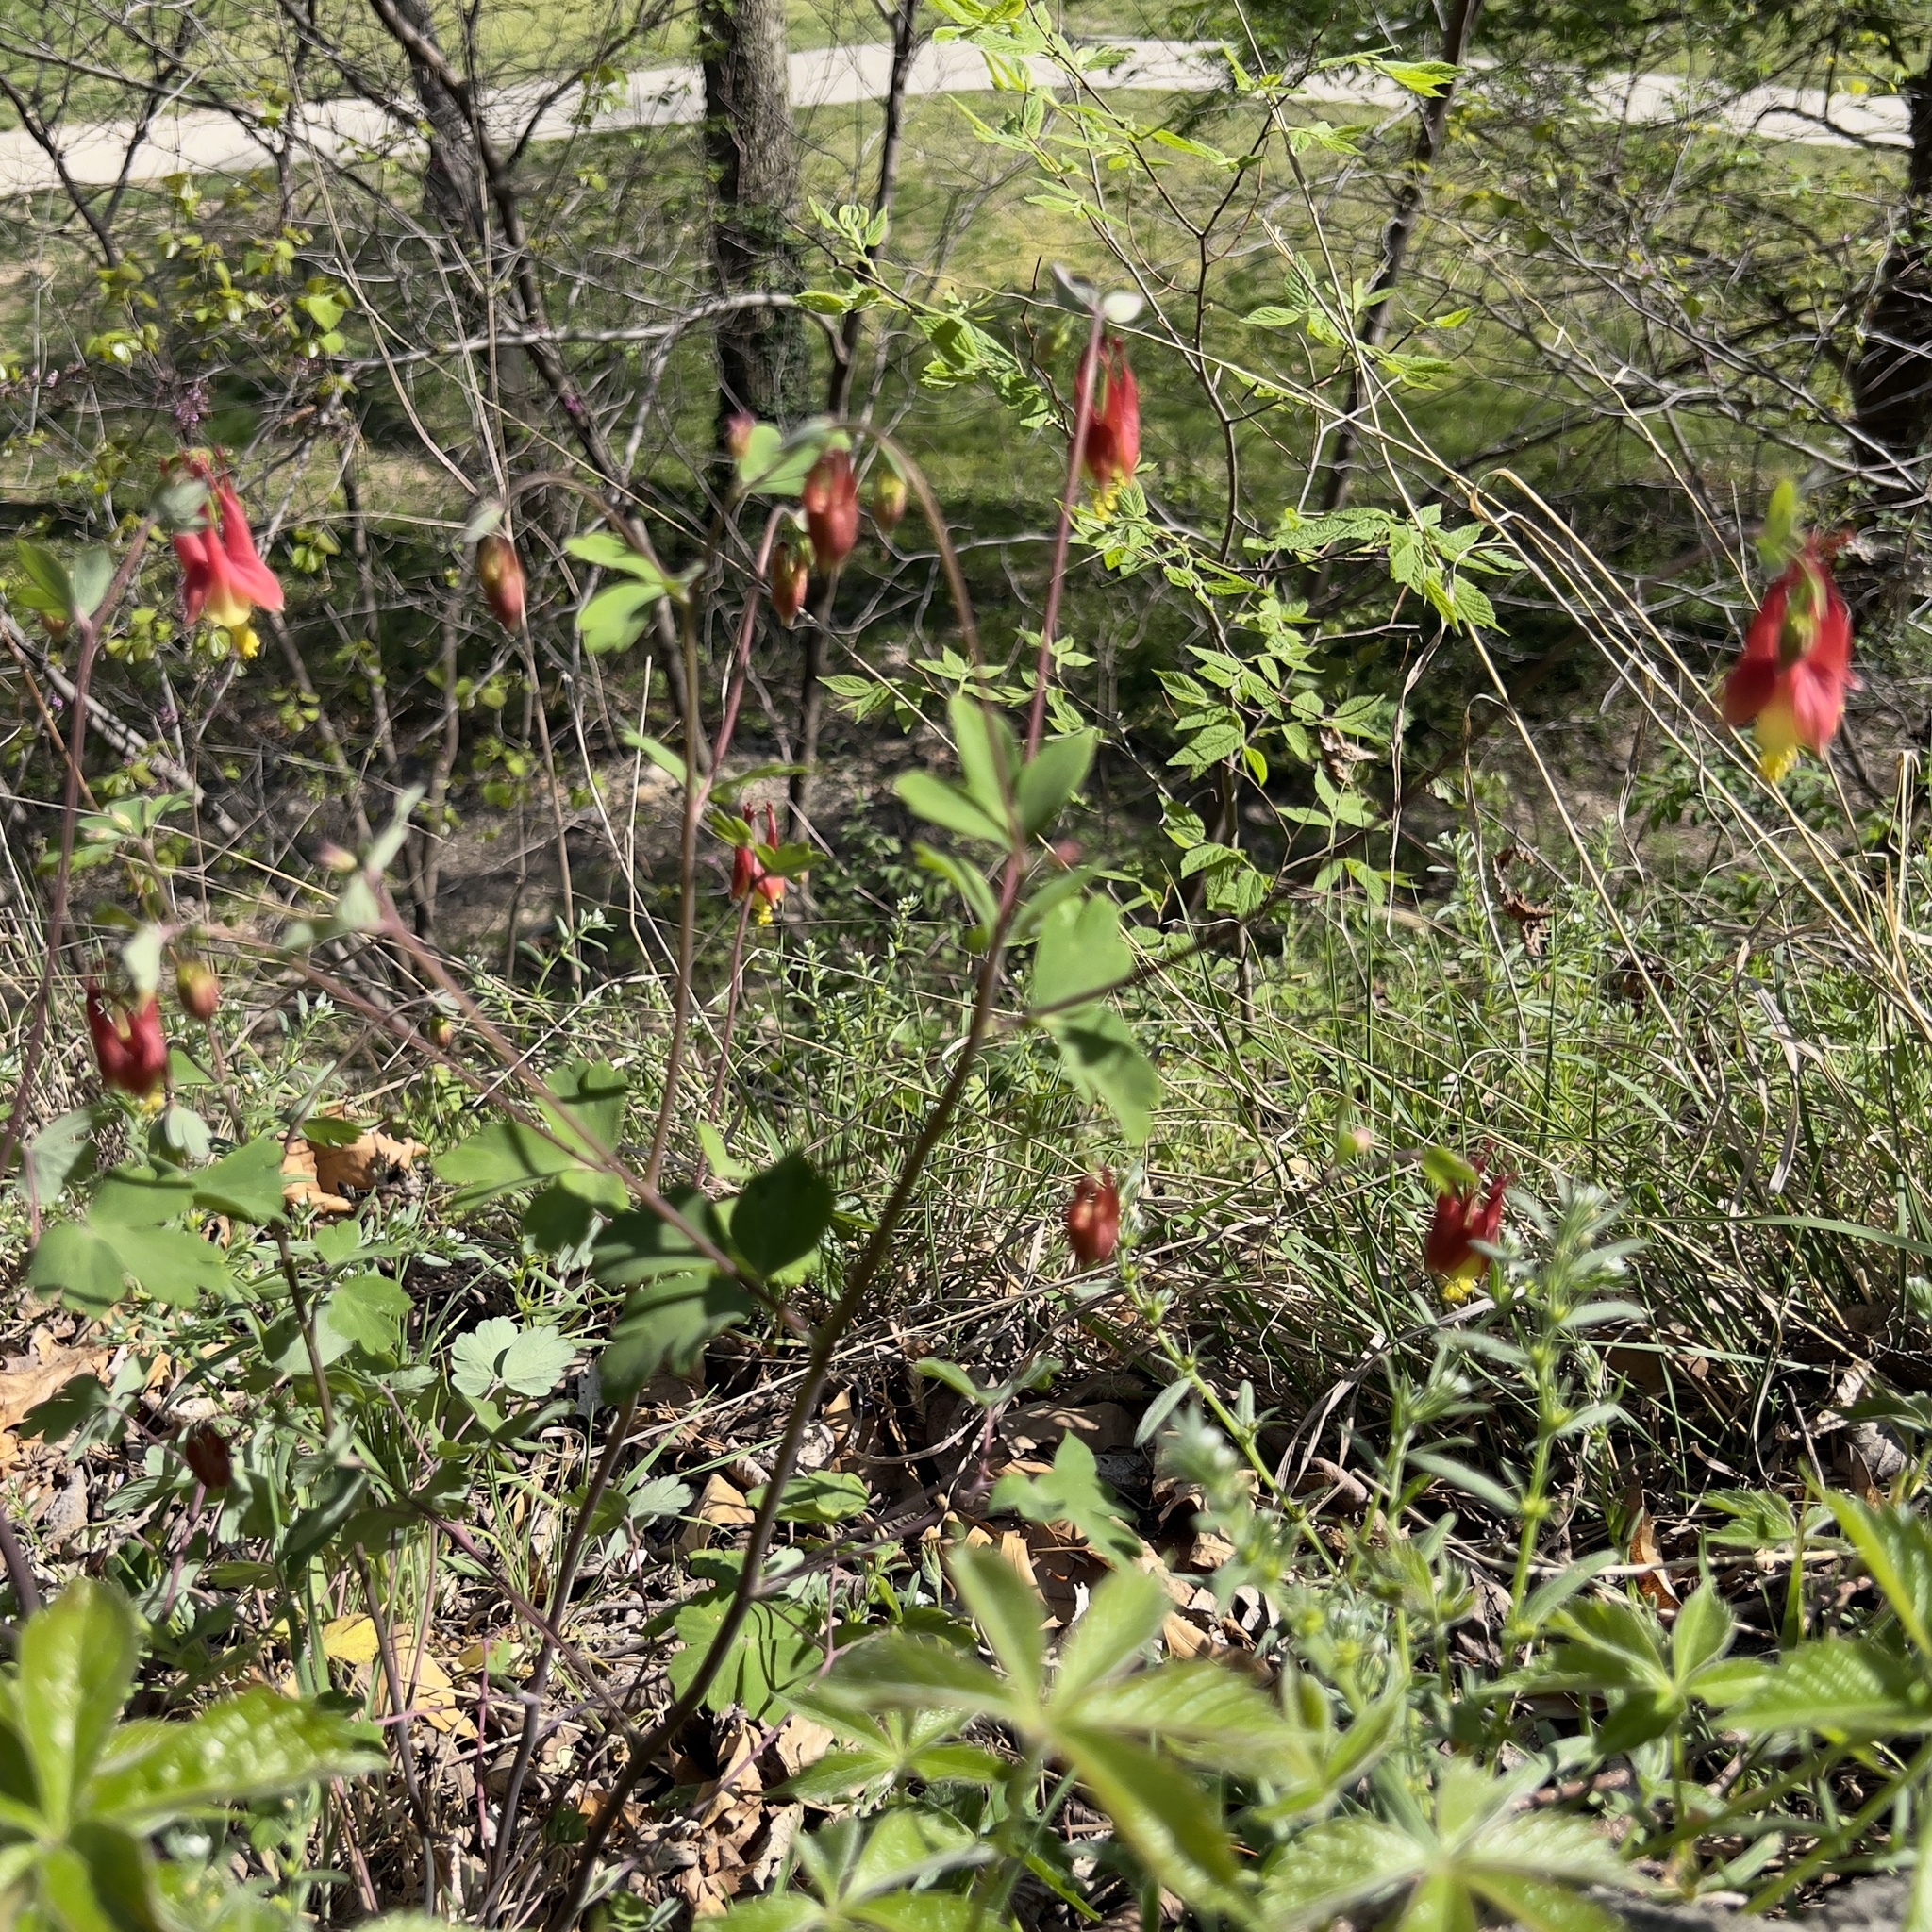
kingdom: Plantae
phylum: Tracheophyta
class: Magnoliopsida
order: Ranunculales
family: Ranunculaceae
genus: Aquilegia
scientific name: Aquilegia canadensis
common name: American columbine
